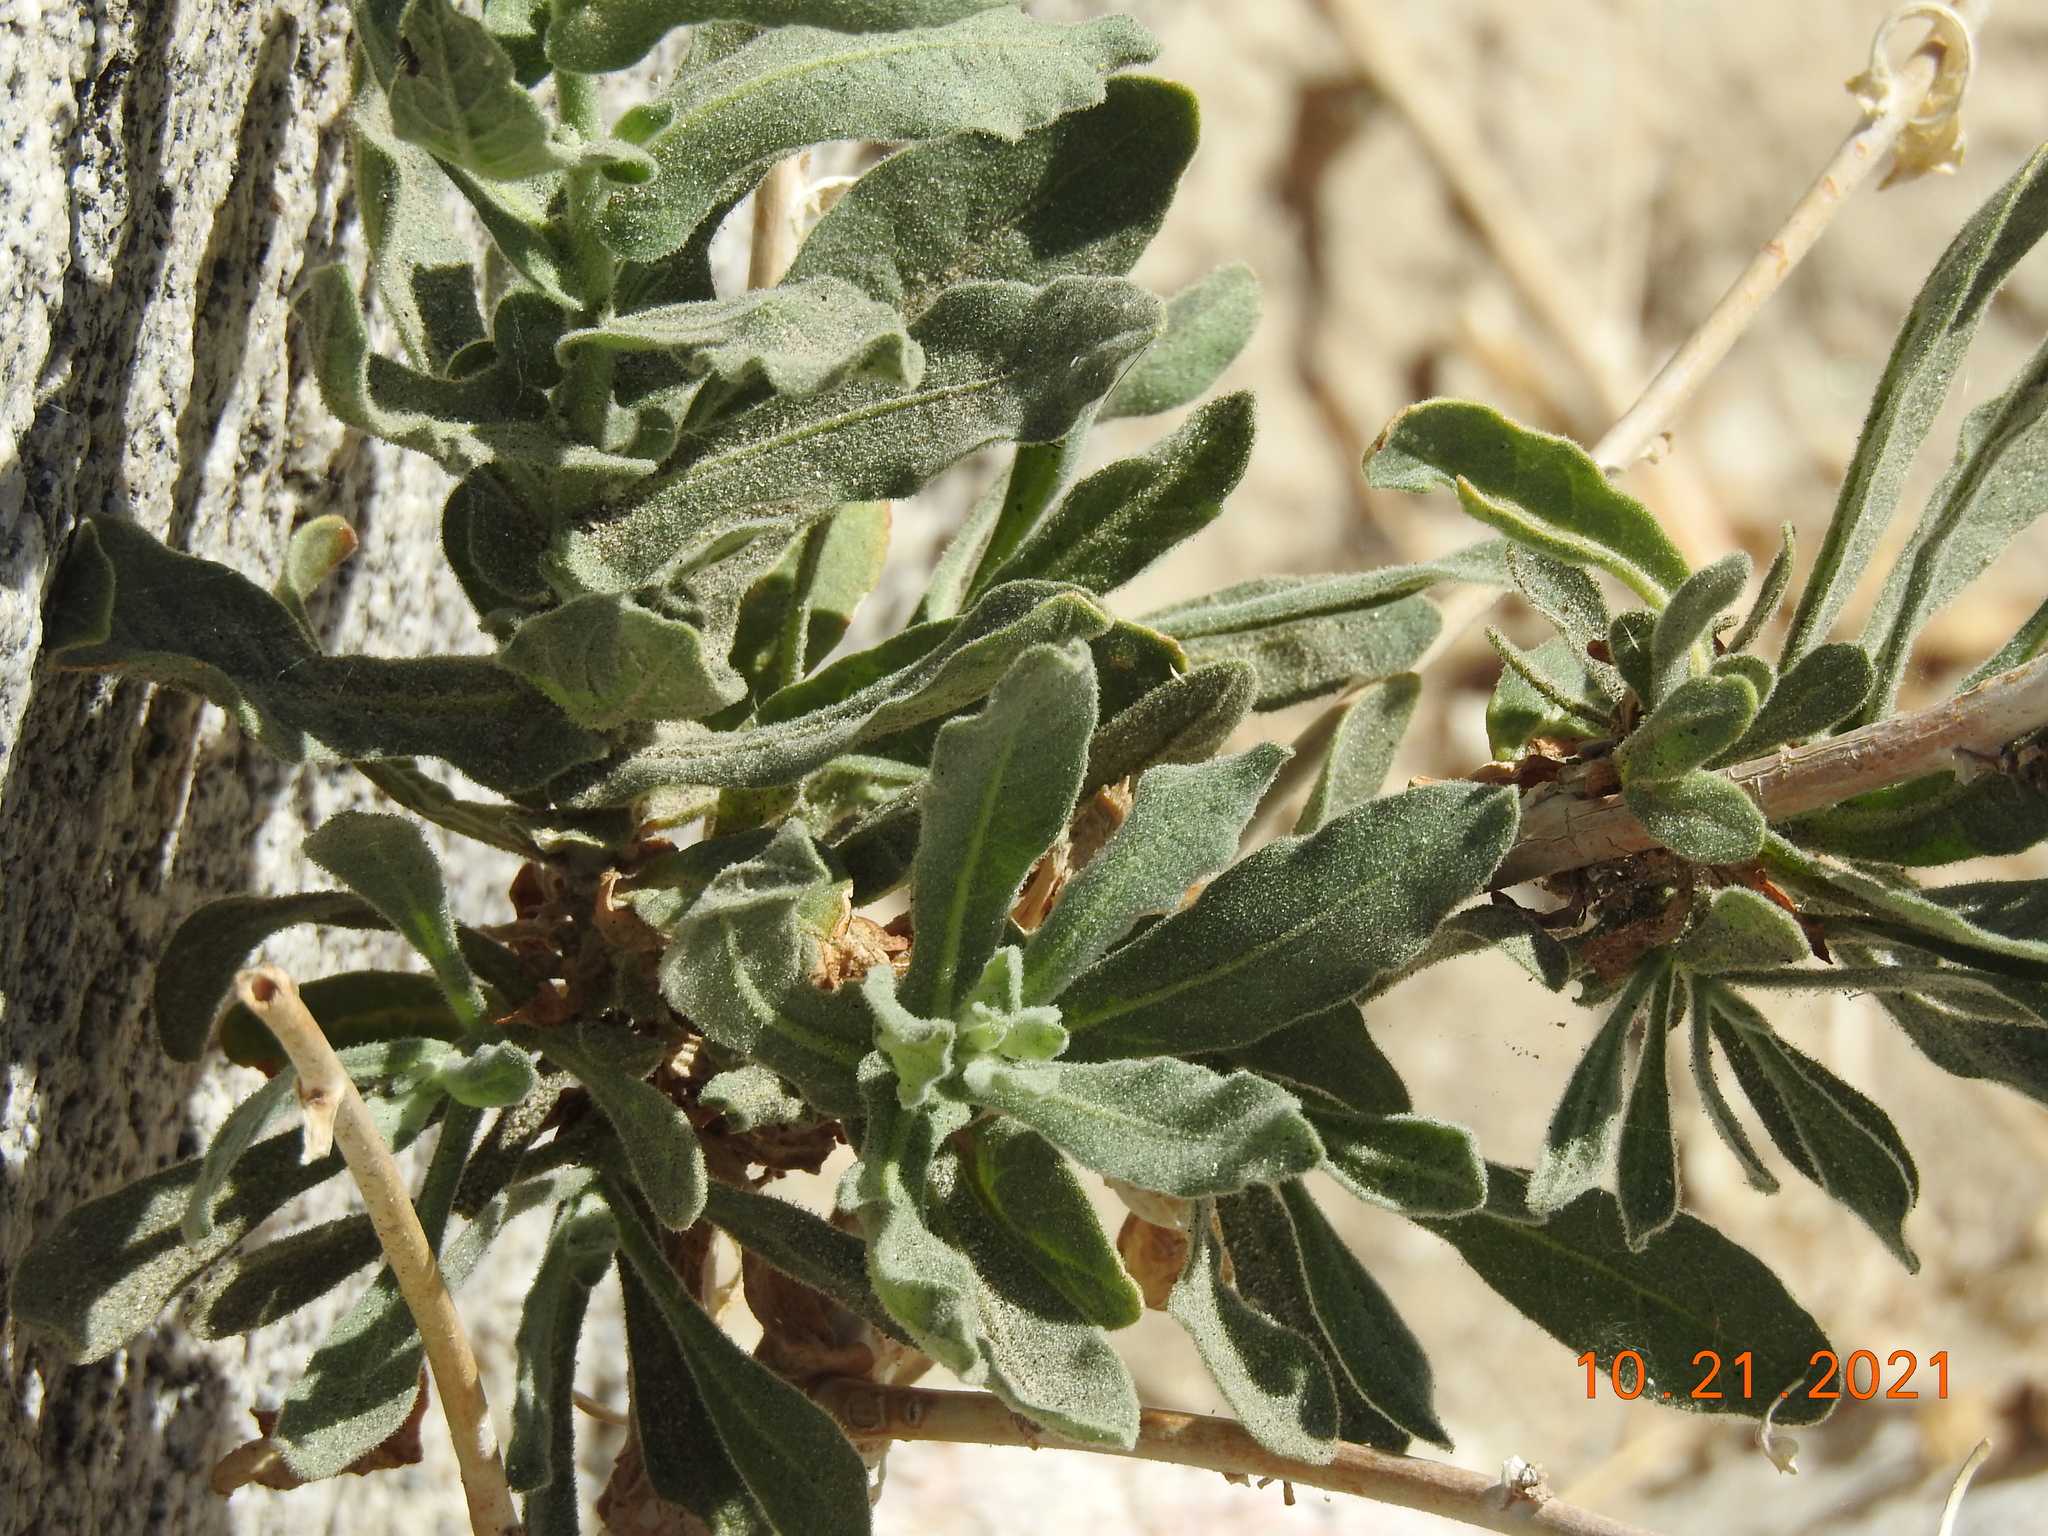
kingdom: Plantae
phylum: Tracheophyta
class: Magnoliopsida
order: Solanales
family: Solanaceae
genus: Nicotiana
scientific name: Nicotiana obtusifolia
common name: Desert tobacco
